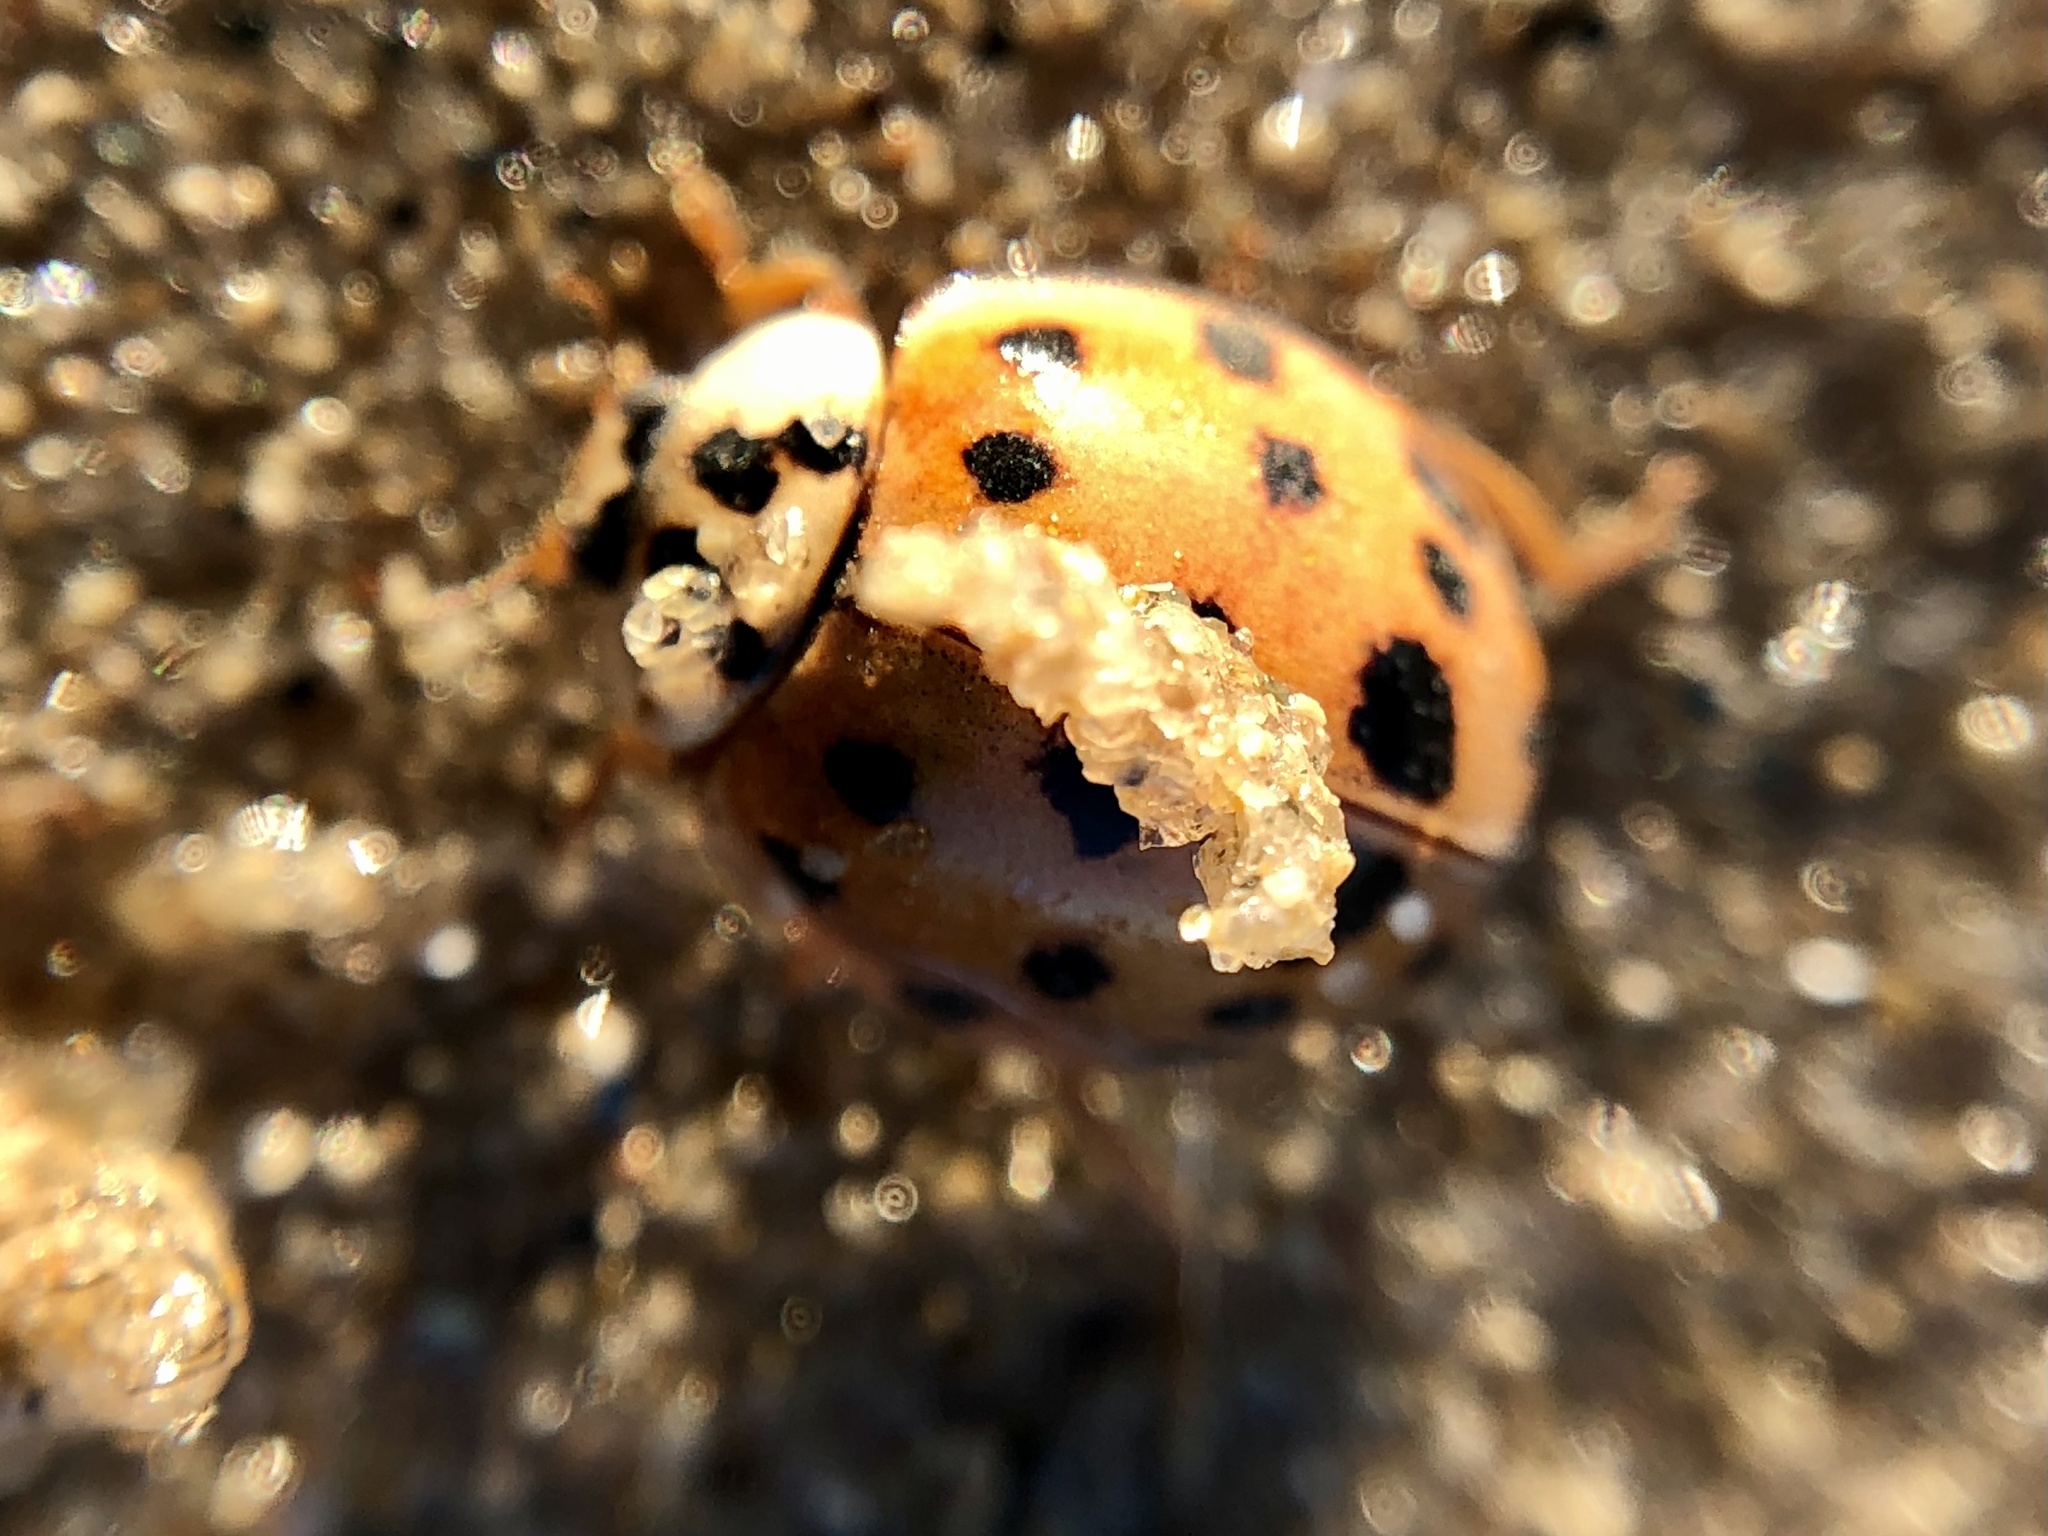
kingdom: Animalia
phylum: Arthropoda
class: Insecta
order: Coleoptera
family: Coccinellidae
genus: Harmonia
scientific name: Harmonia axyridis
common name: Harlequin ladybird
